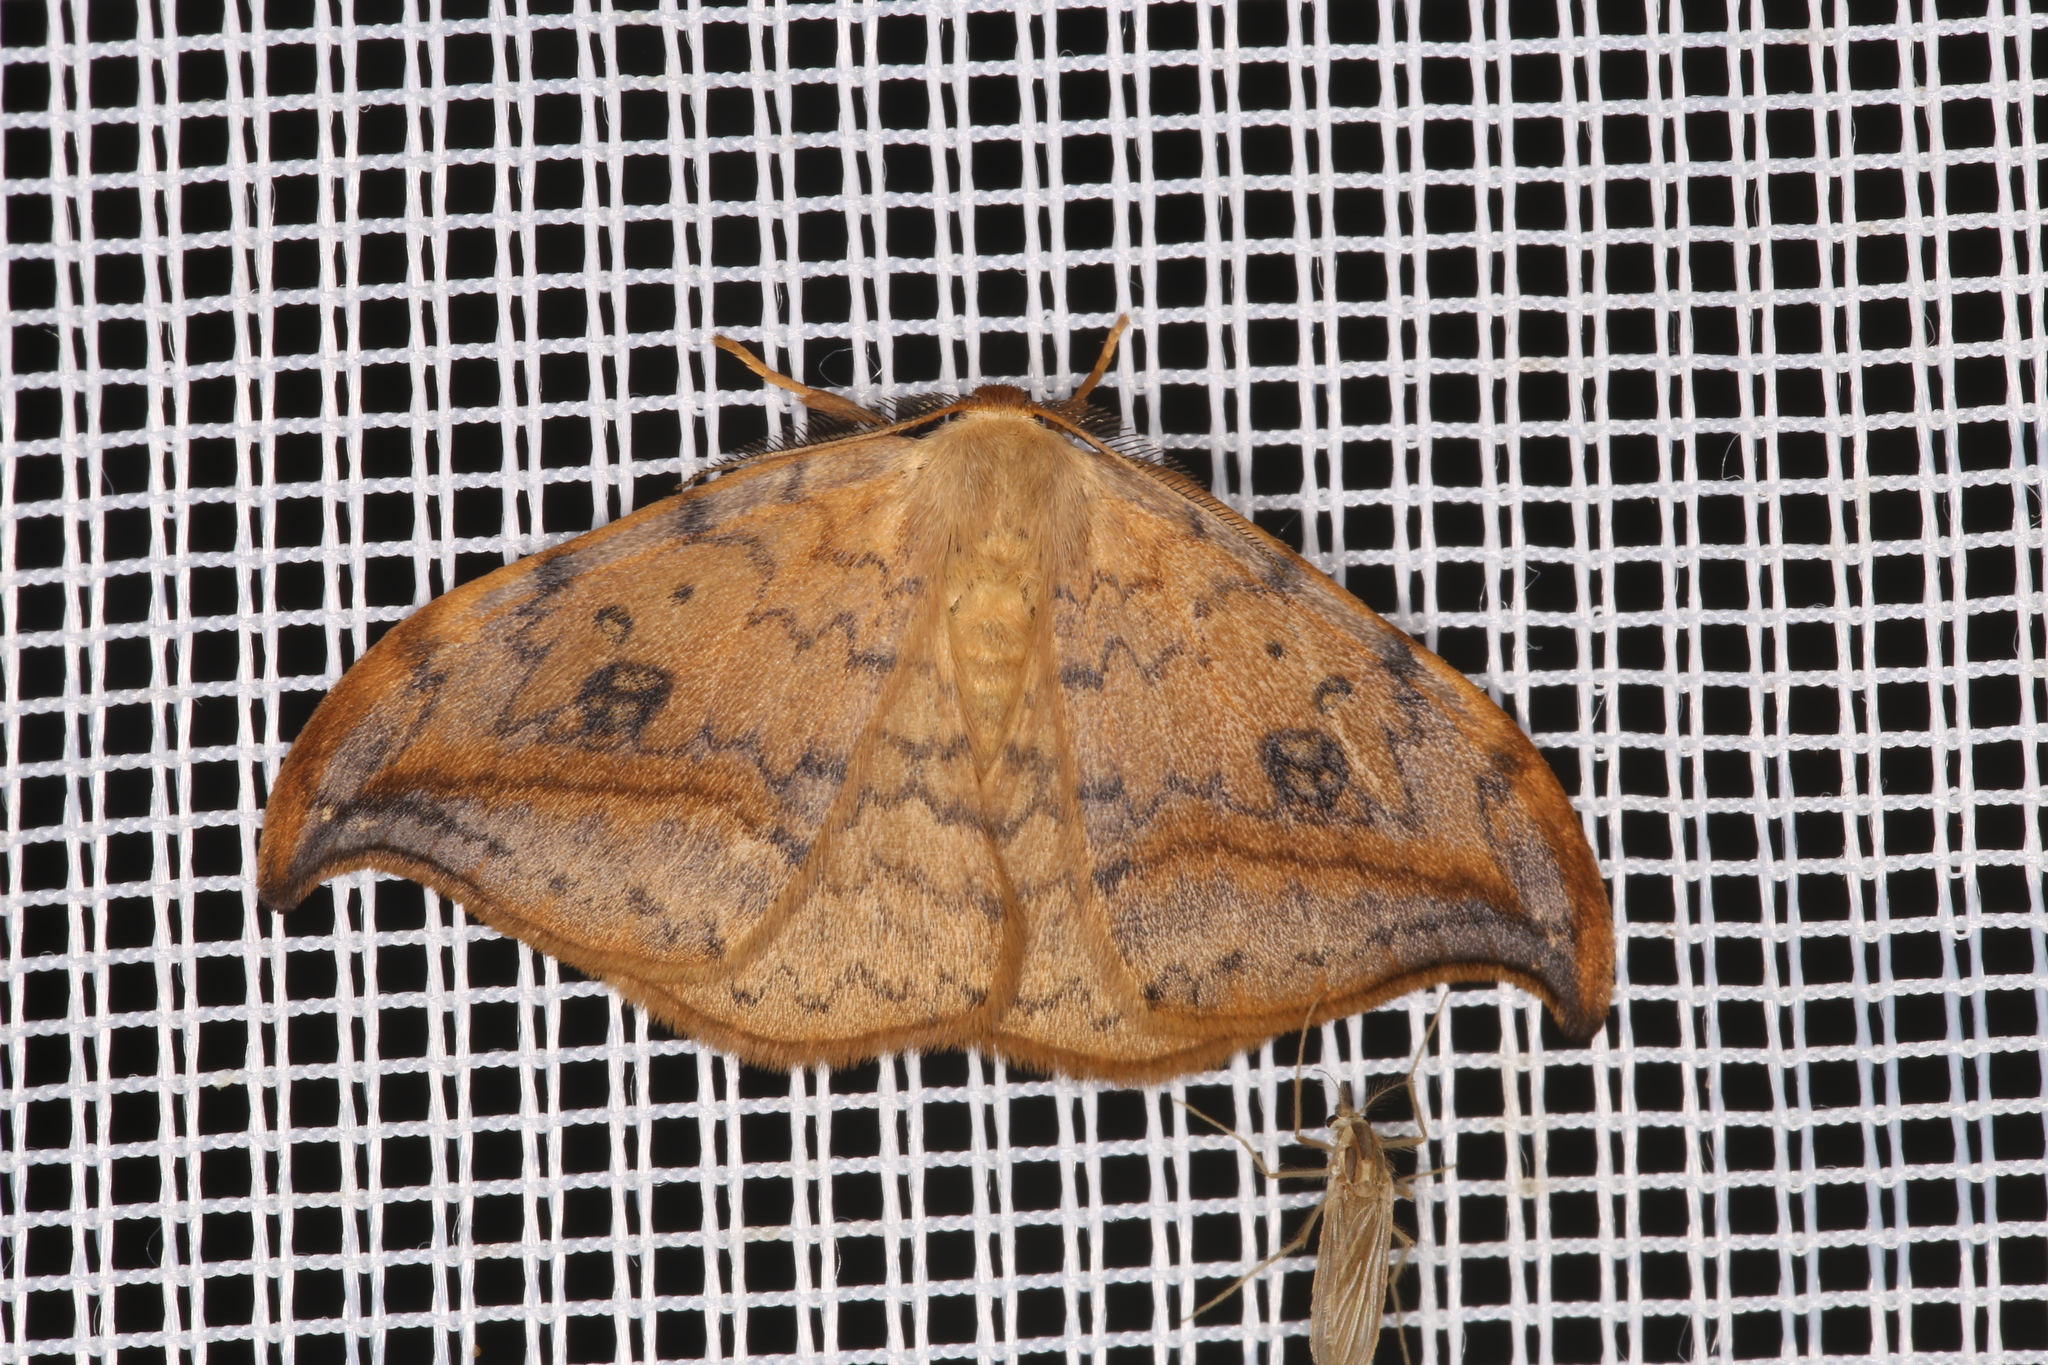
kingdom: Animalia
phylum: Arthropoda
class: Insecta
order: Lepidoptera
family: Drepanidae
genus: Drepana
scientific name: Drepana falcataria
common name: Pebble hook-tip
